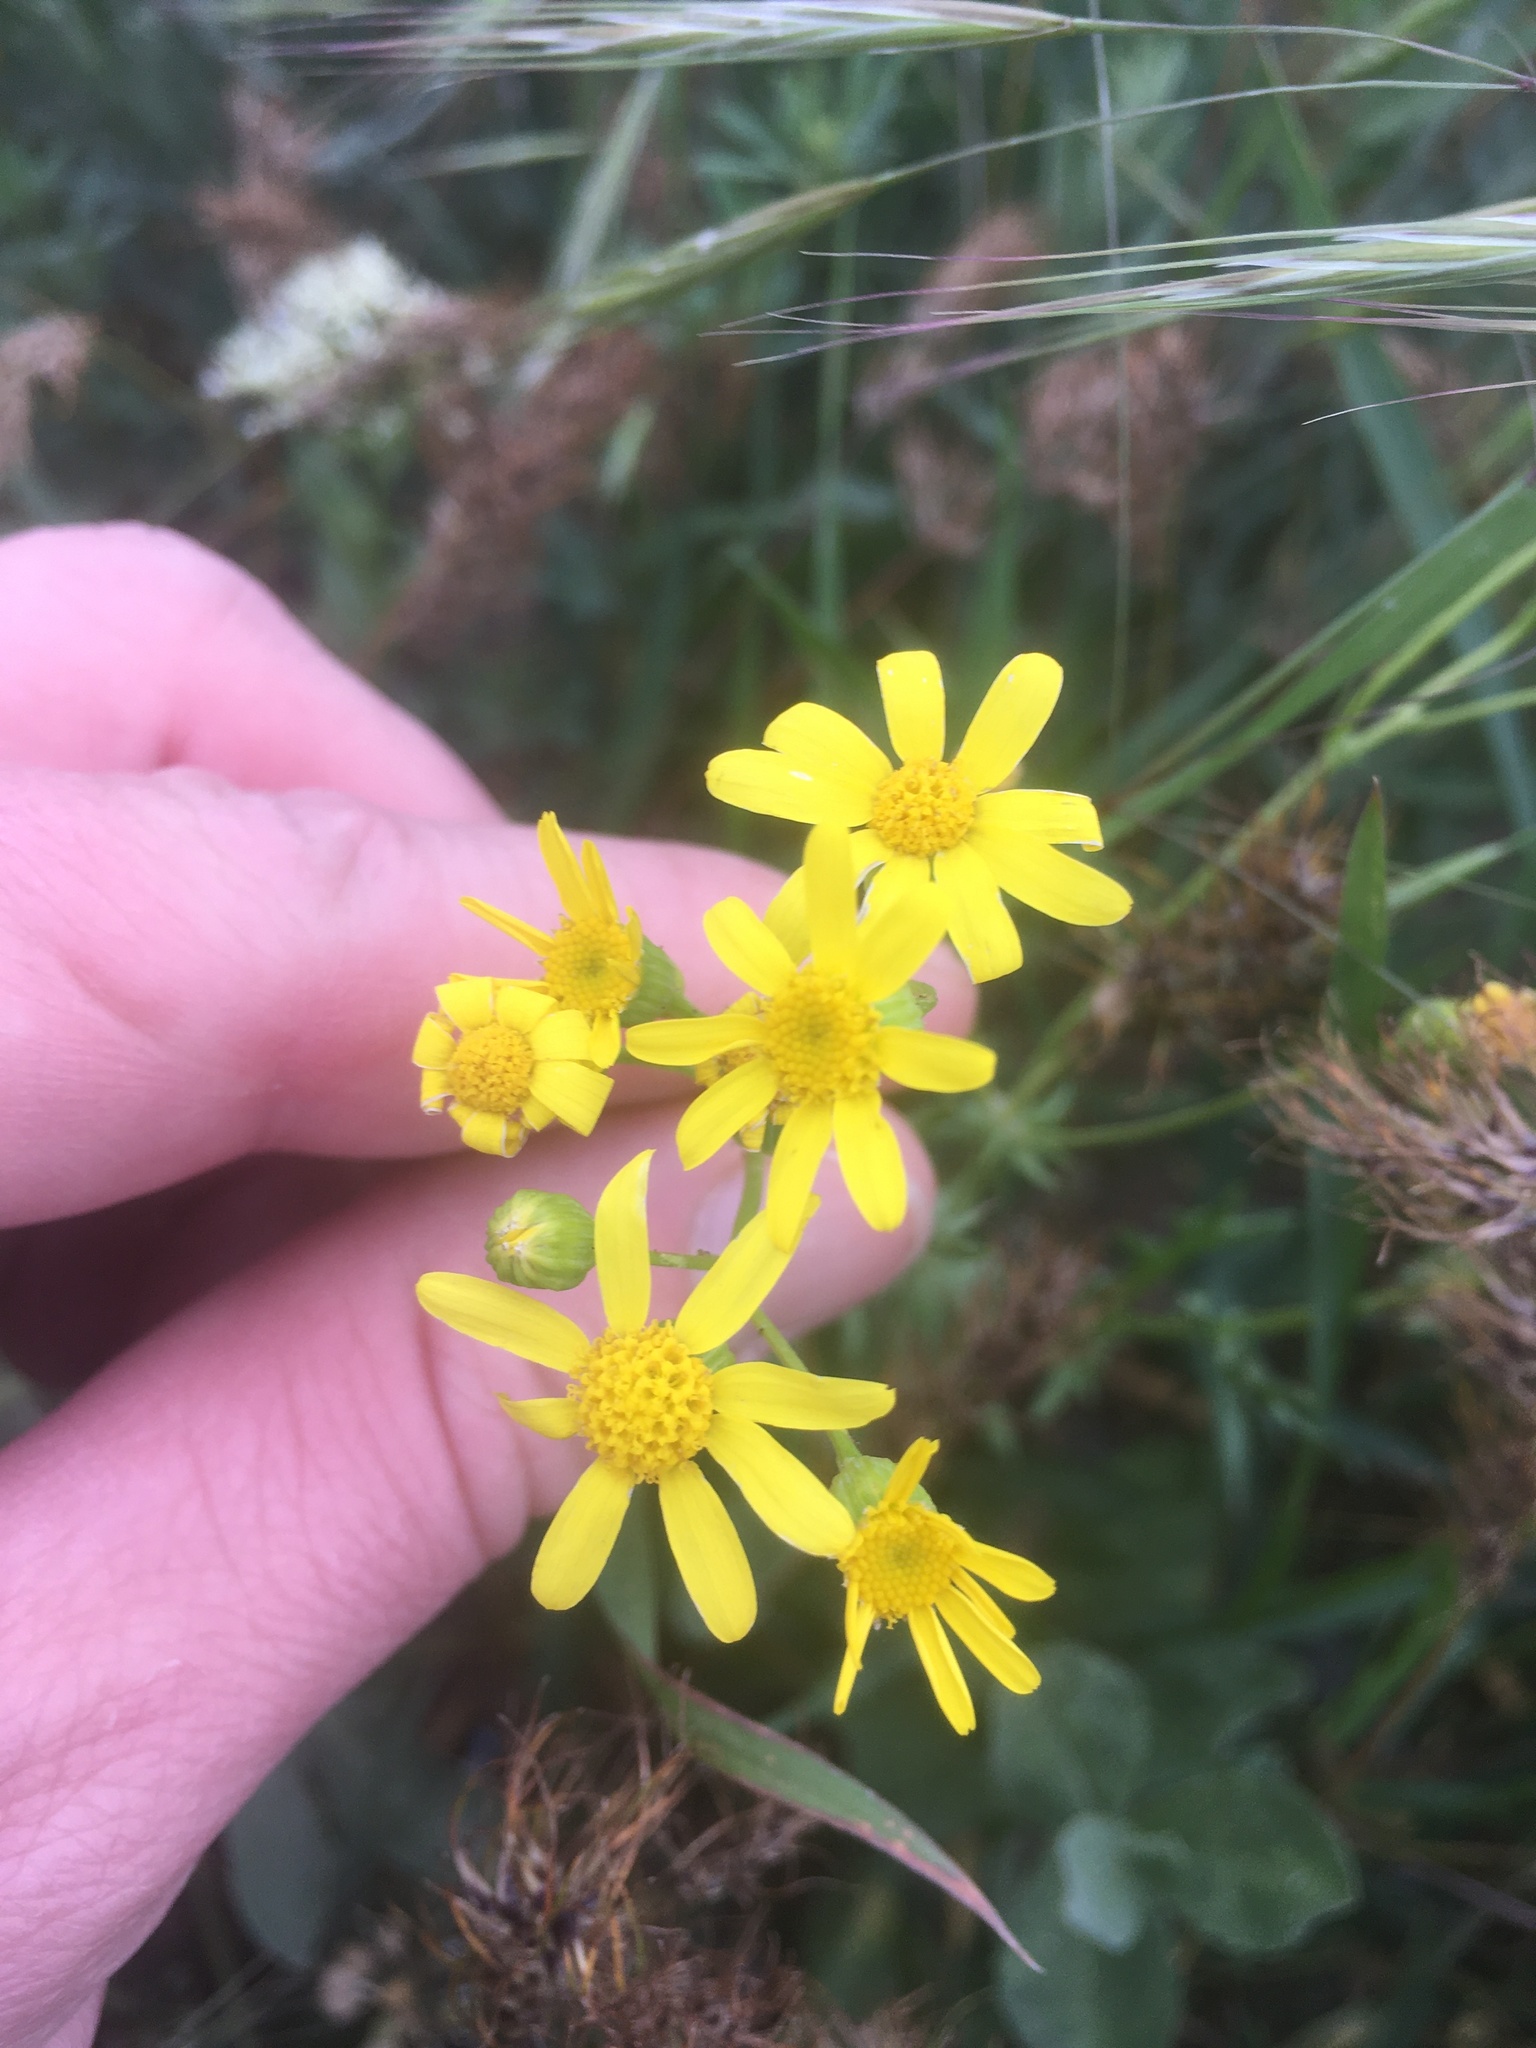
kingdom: Plantae
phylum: Tracheophyta
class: Magnoliopsida
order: Asterales
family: Asteraceae
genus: Senecio
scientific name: Senecio vernalis
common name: Eastern groundsel
